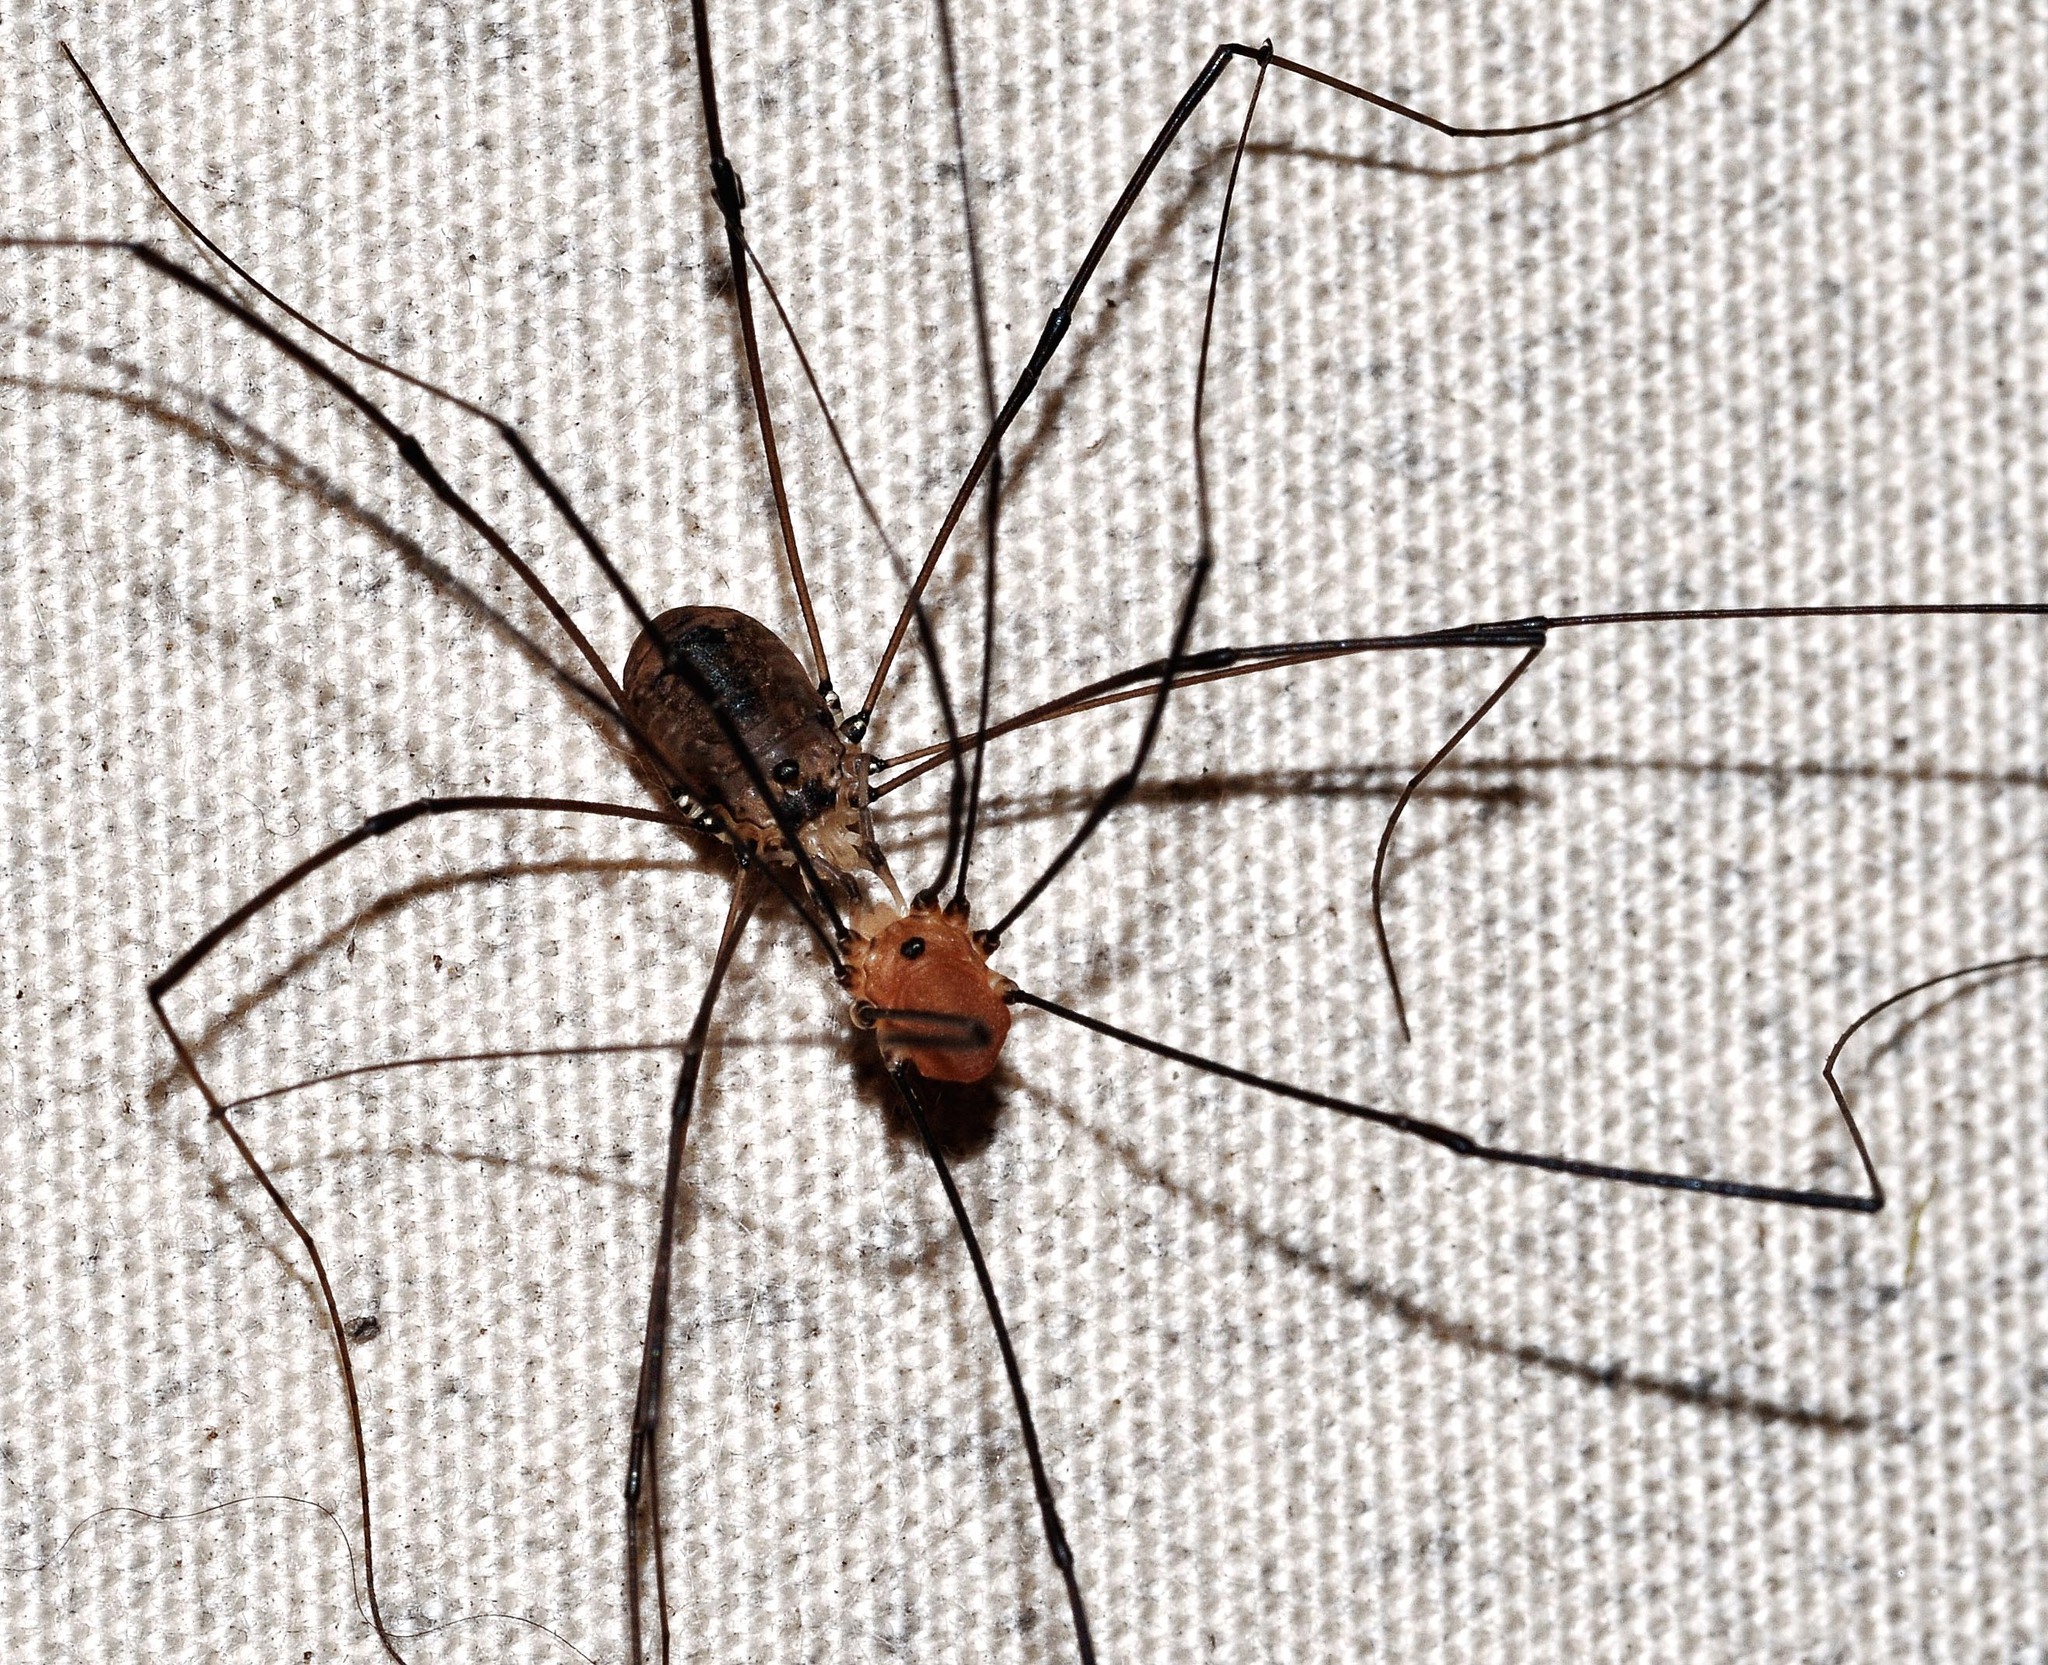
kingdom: Animalia
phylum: Arthropoda
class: Arachnida
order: Opiliones
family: Sclerosomatidae
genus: Leiobunum
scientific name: Leiobunum rotundum
